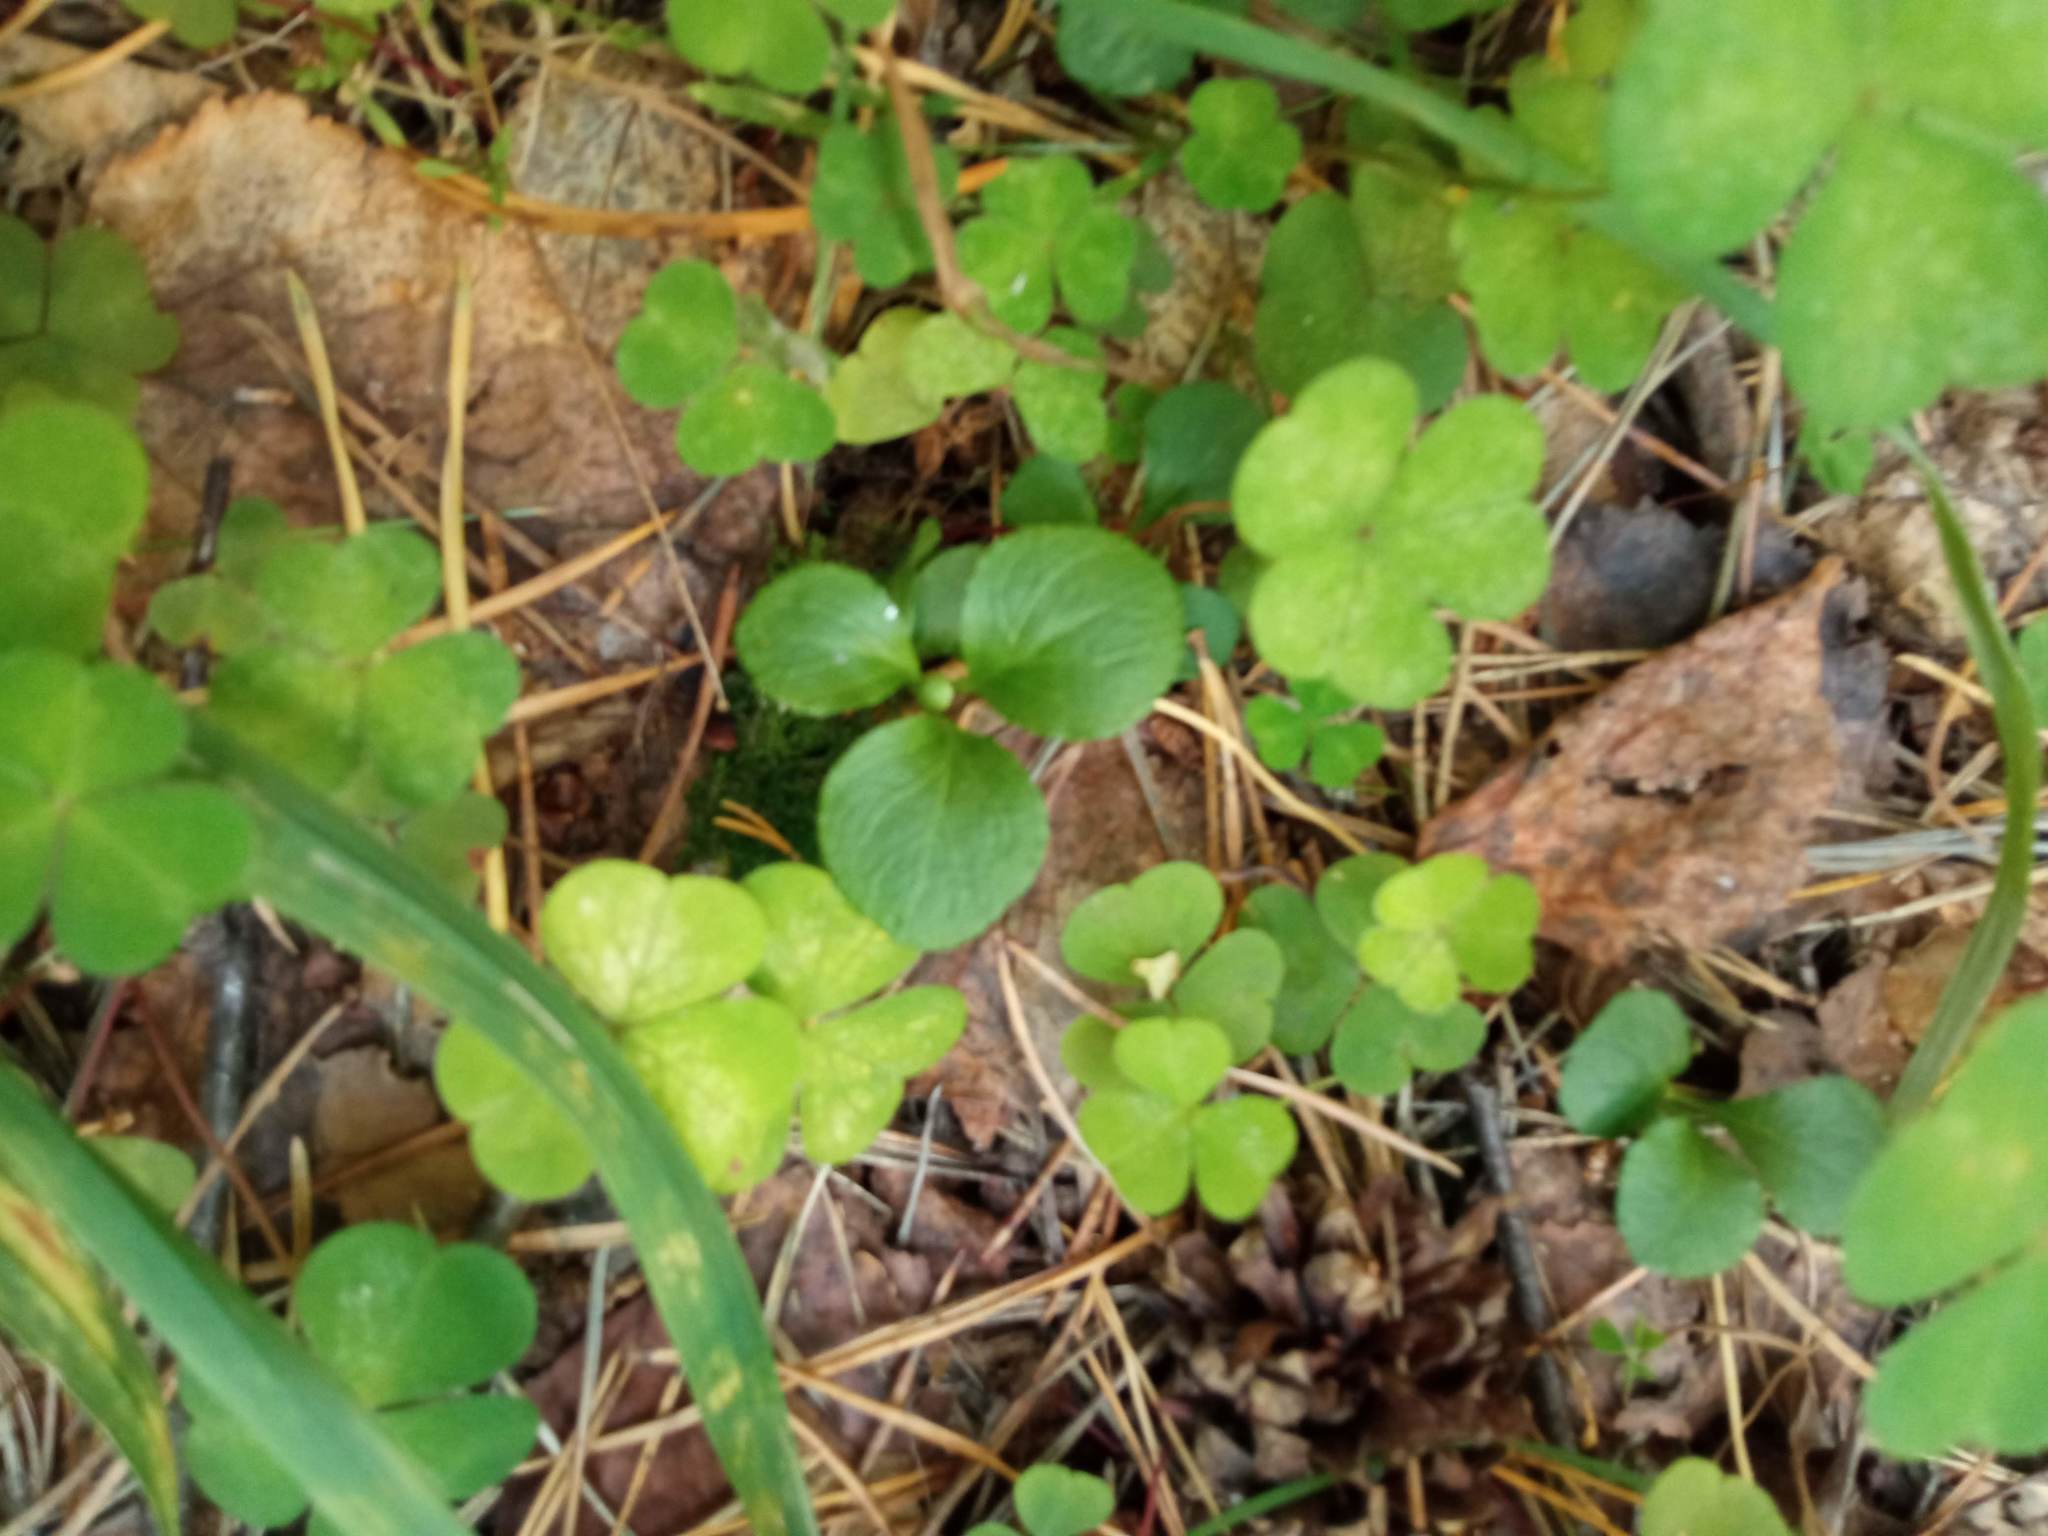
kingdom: Plantae
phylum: Tracheophyta
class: Magnoliopsida
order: Ericales
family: Ericaceae
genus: Moneses
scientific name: Moneses uniflora
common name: One-flowered wintergreen
